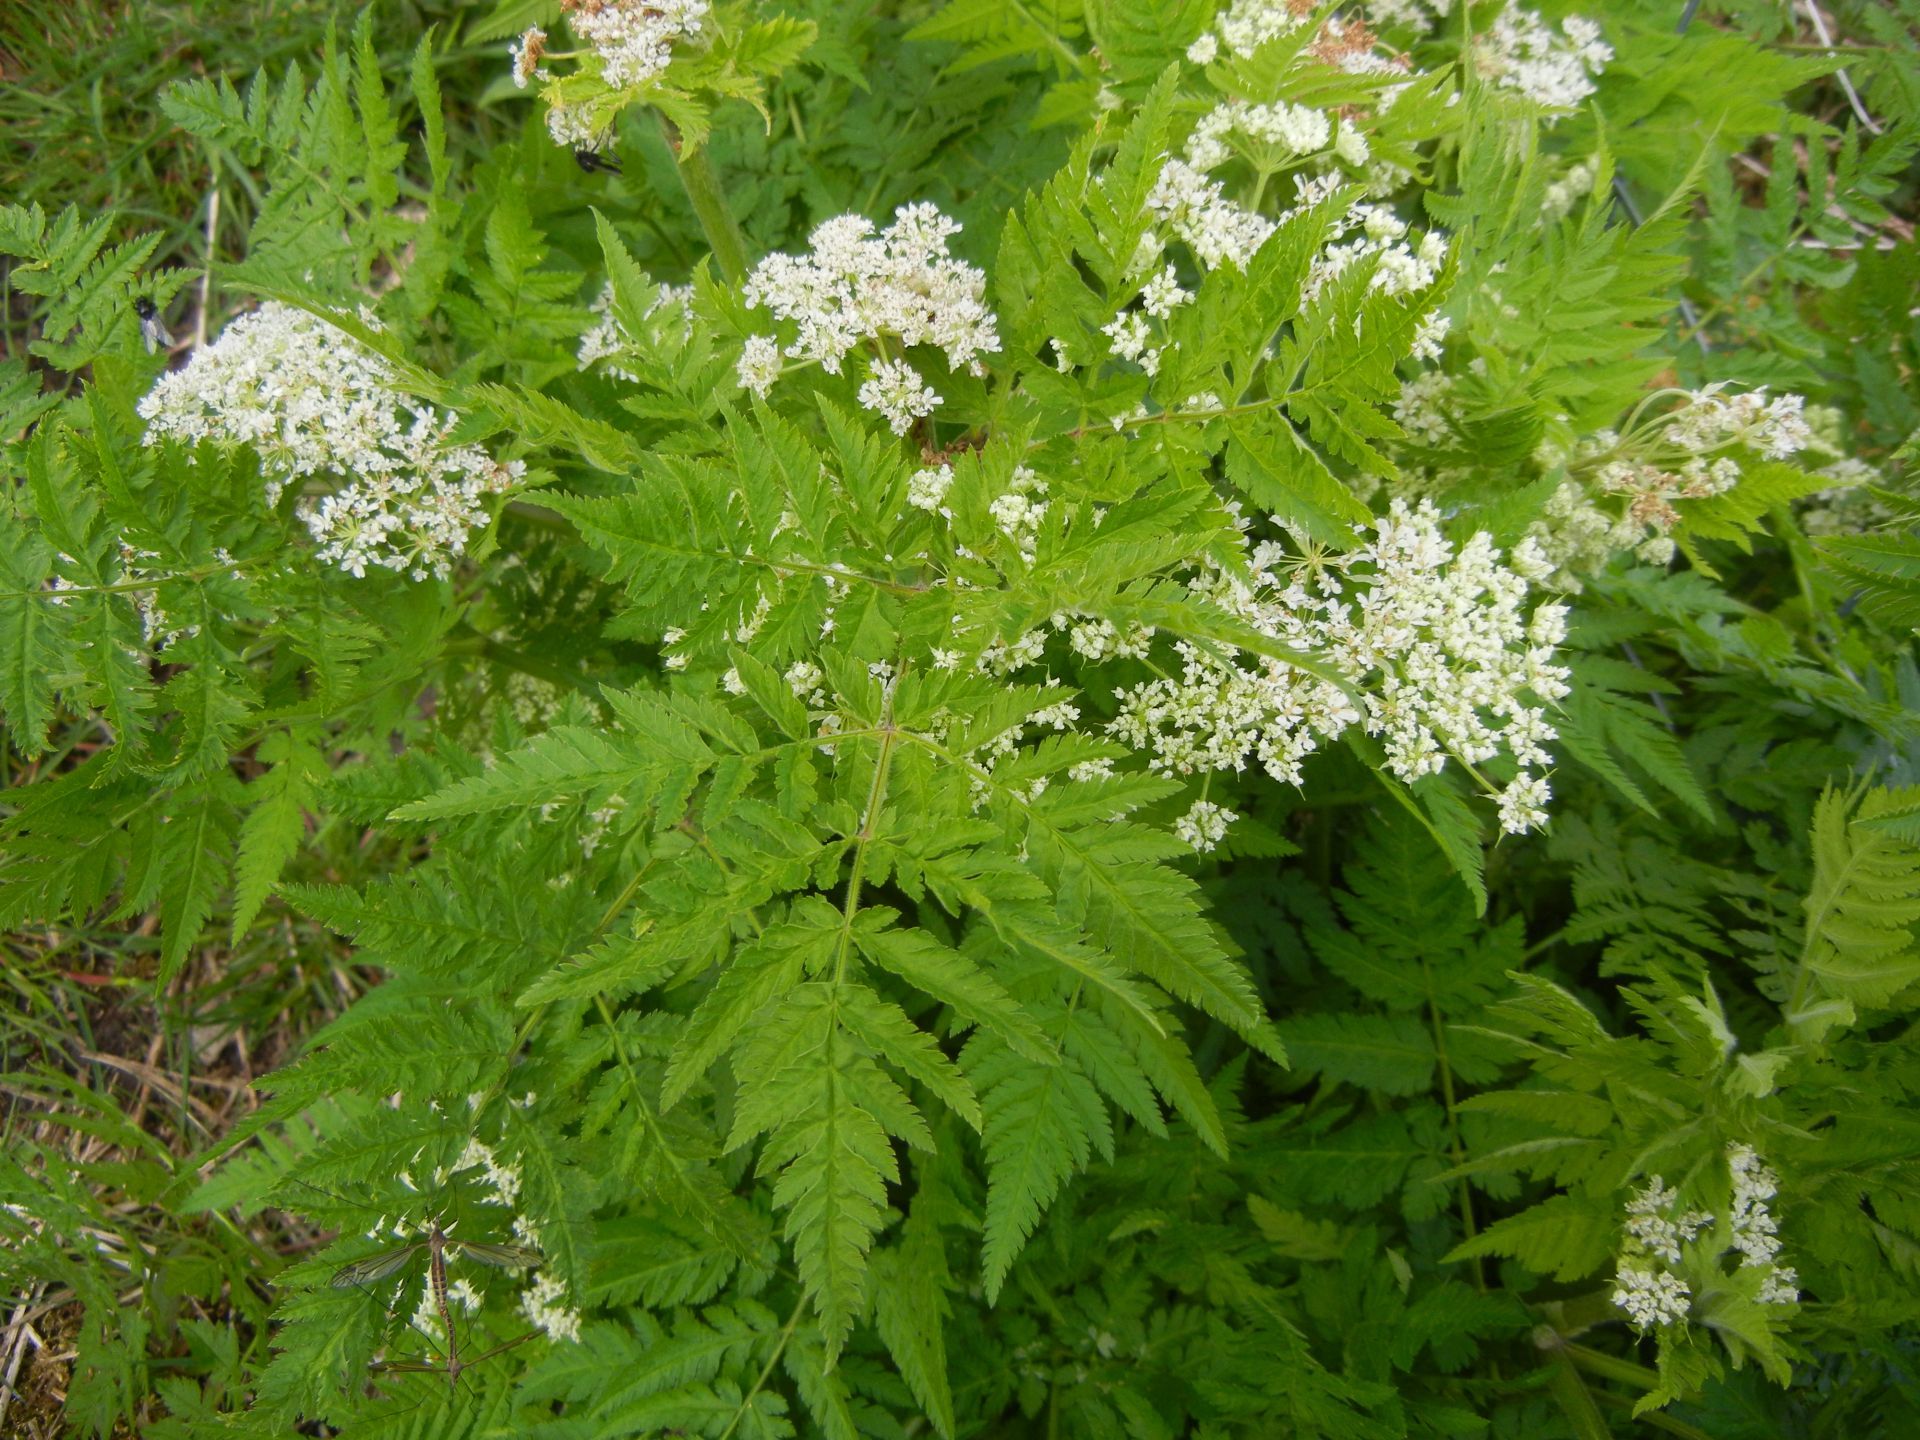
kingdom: Plantae
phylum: Tracheophyta
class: Magnoliopsida
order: Apiales
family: Apiaceae
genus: Myrrhis
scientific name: Myrrhis odorata
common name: Sweet cicely
